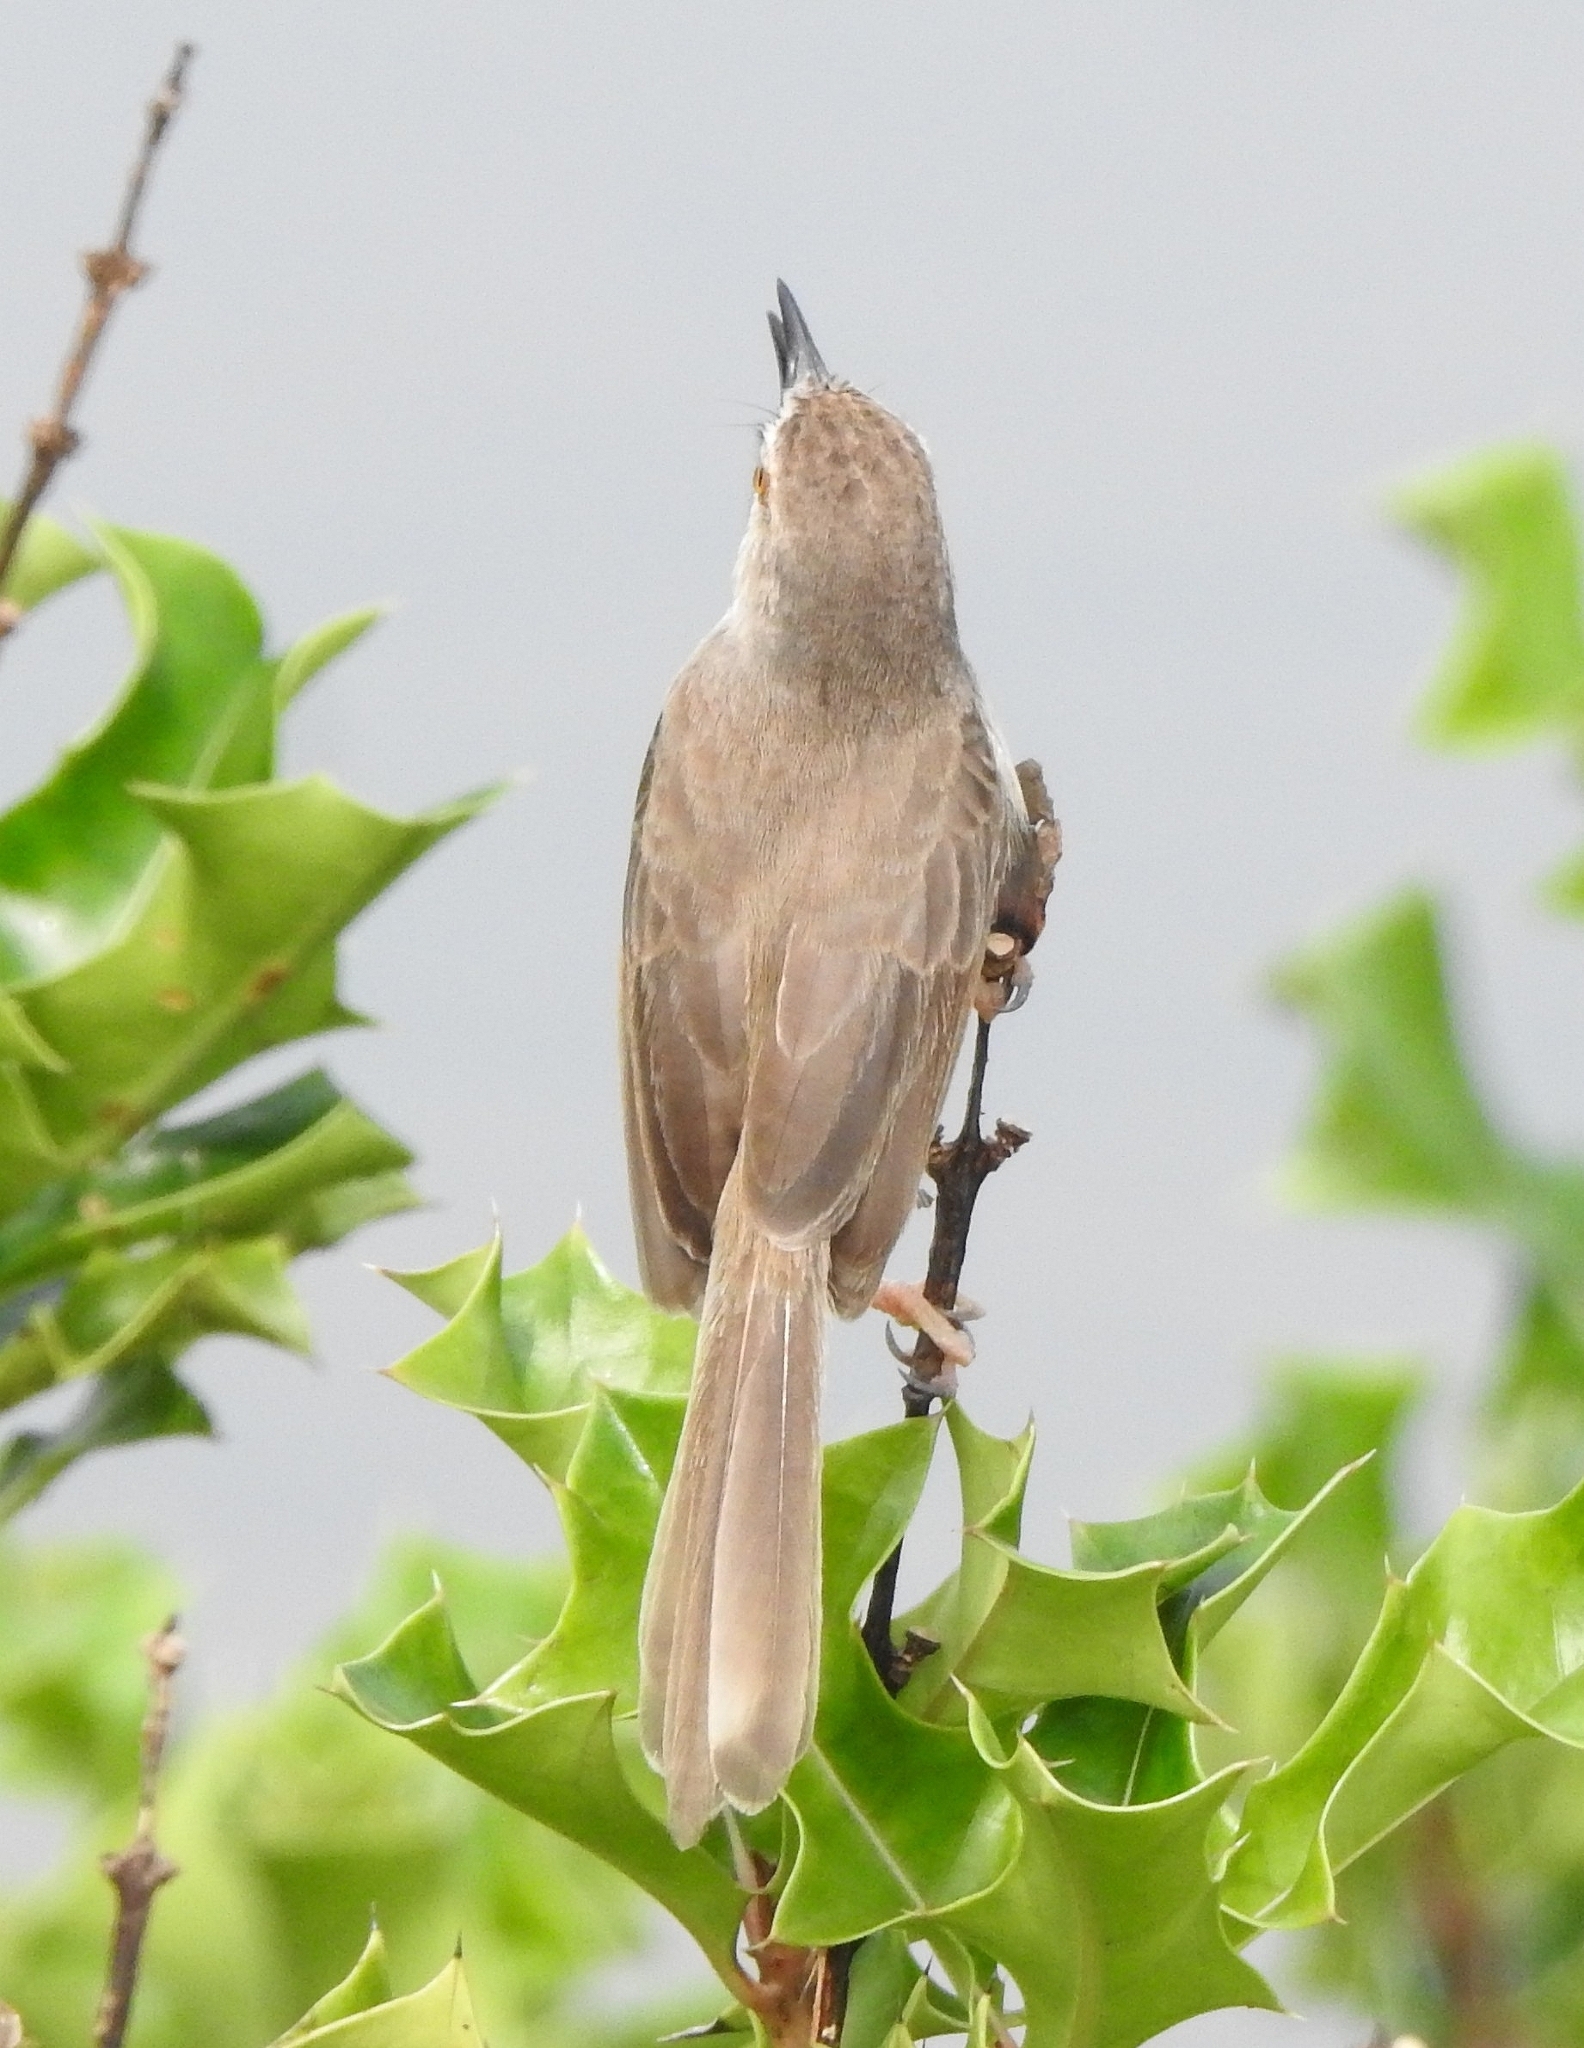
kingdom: Animalia
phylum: Chordata
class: Aves
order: Passeriformes
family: Cisticolidae
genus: Prinia
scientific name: Prinia inornata
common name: Plain prinia
